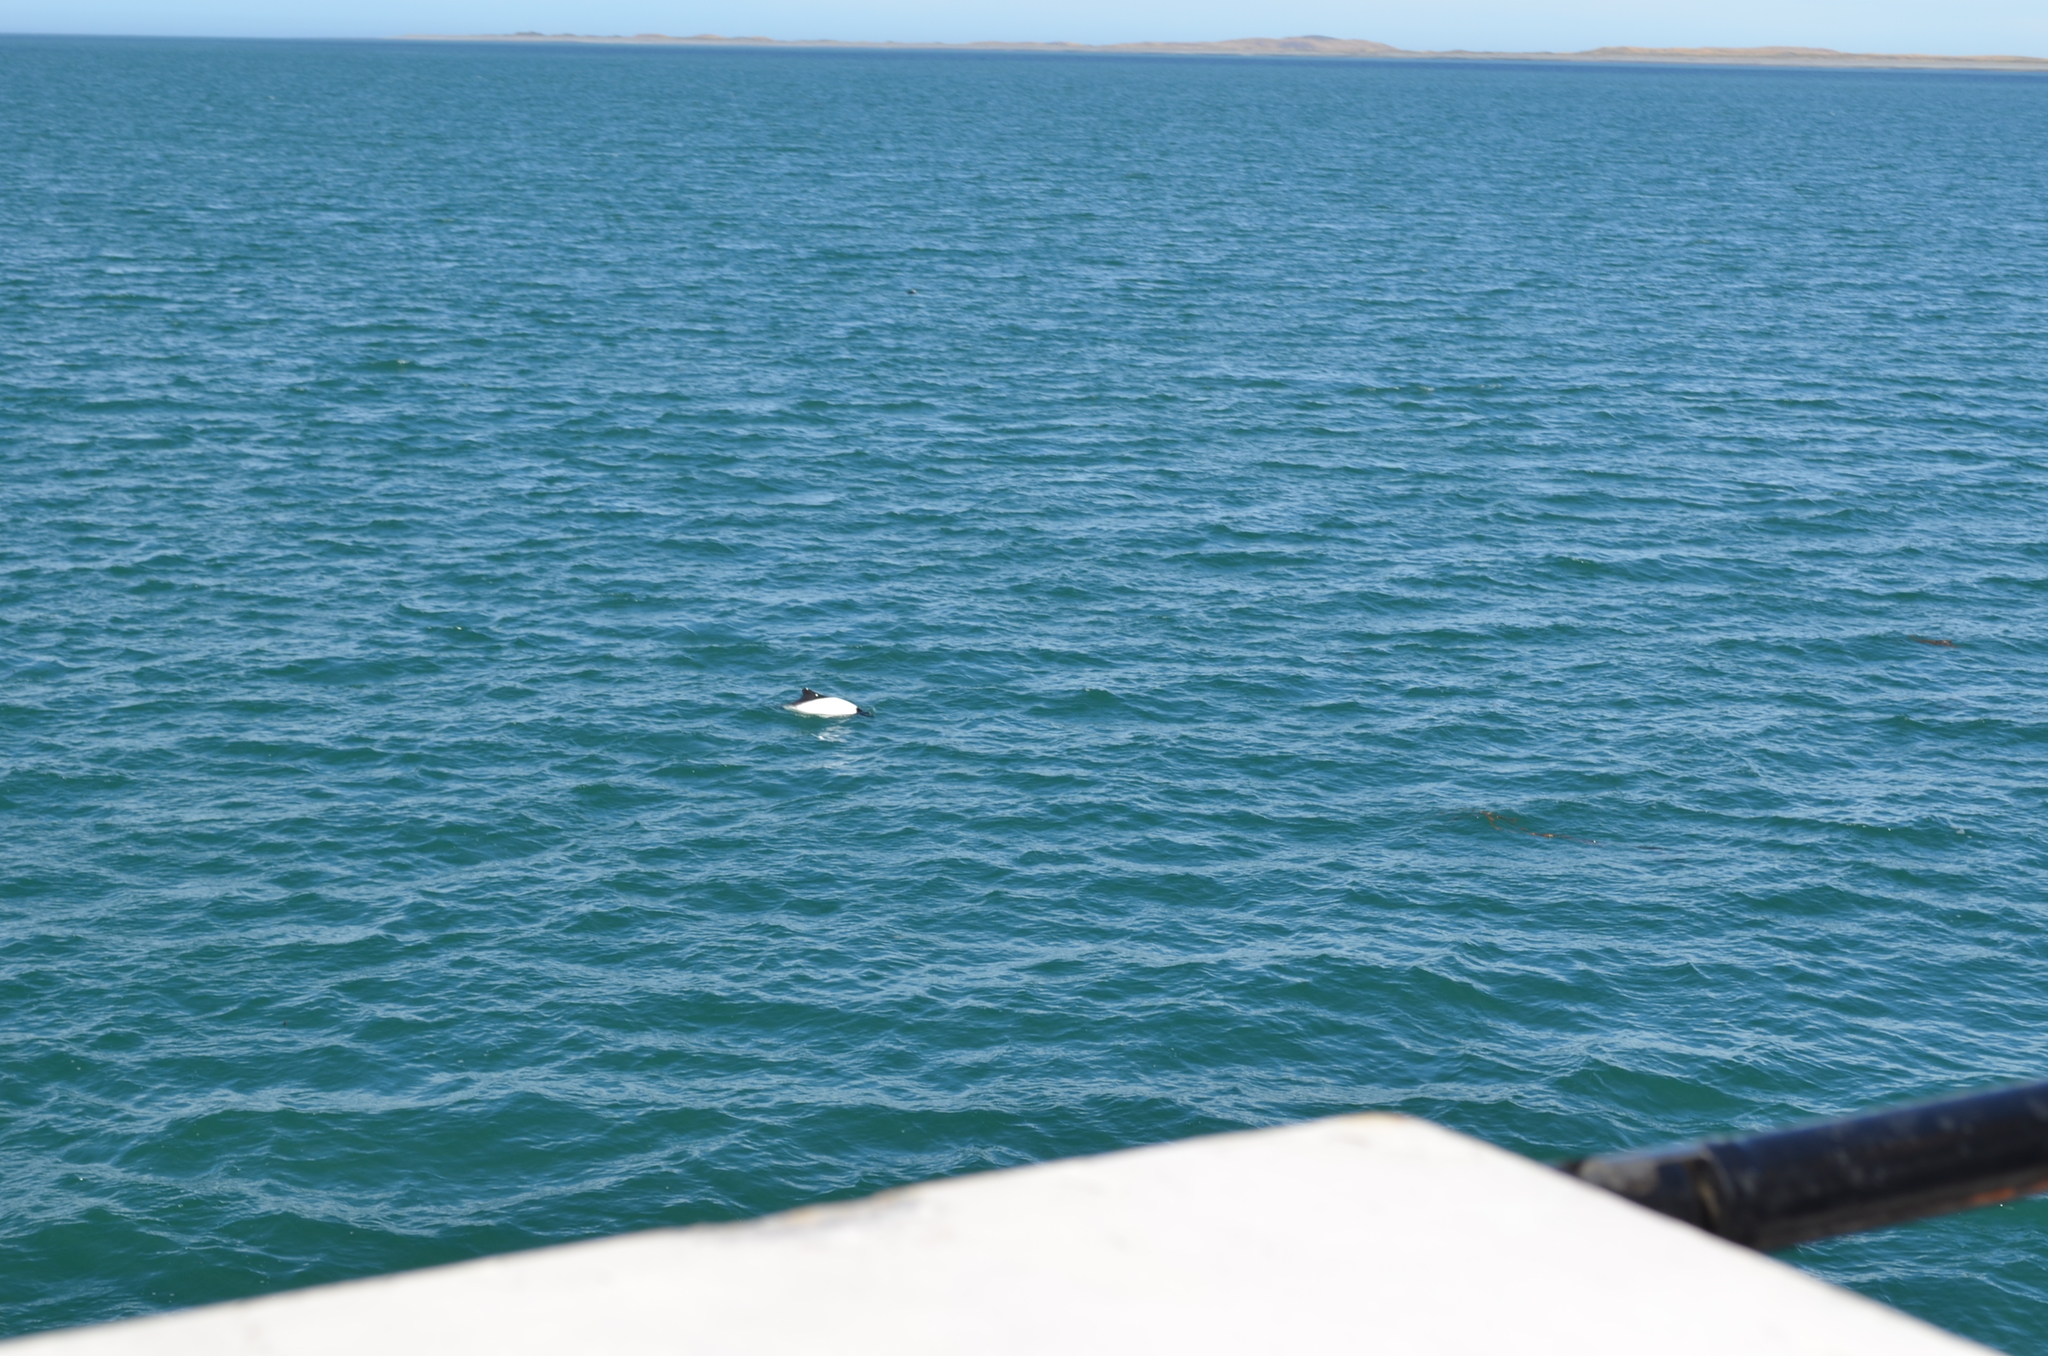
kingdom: Animalia
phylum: Chordata
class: Mammalia
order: Cetacea
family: Delphinidae
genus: Cephalorhynchus
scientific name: Cephalorhynchus commersonii
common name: Commerson's dolphin
